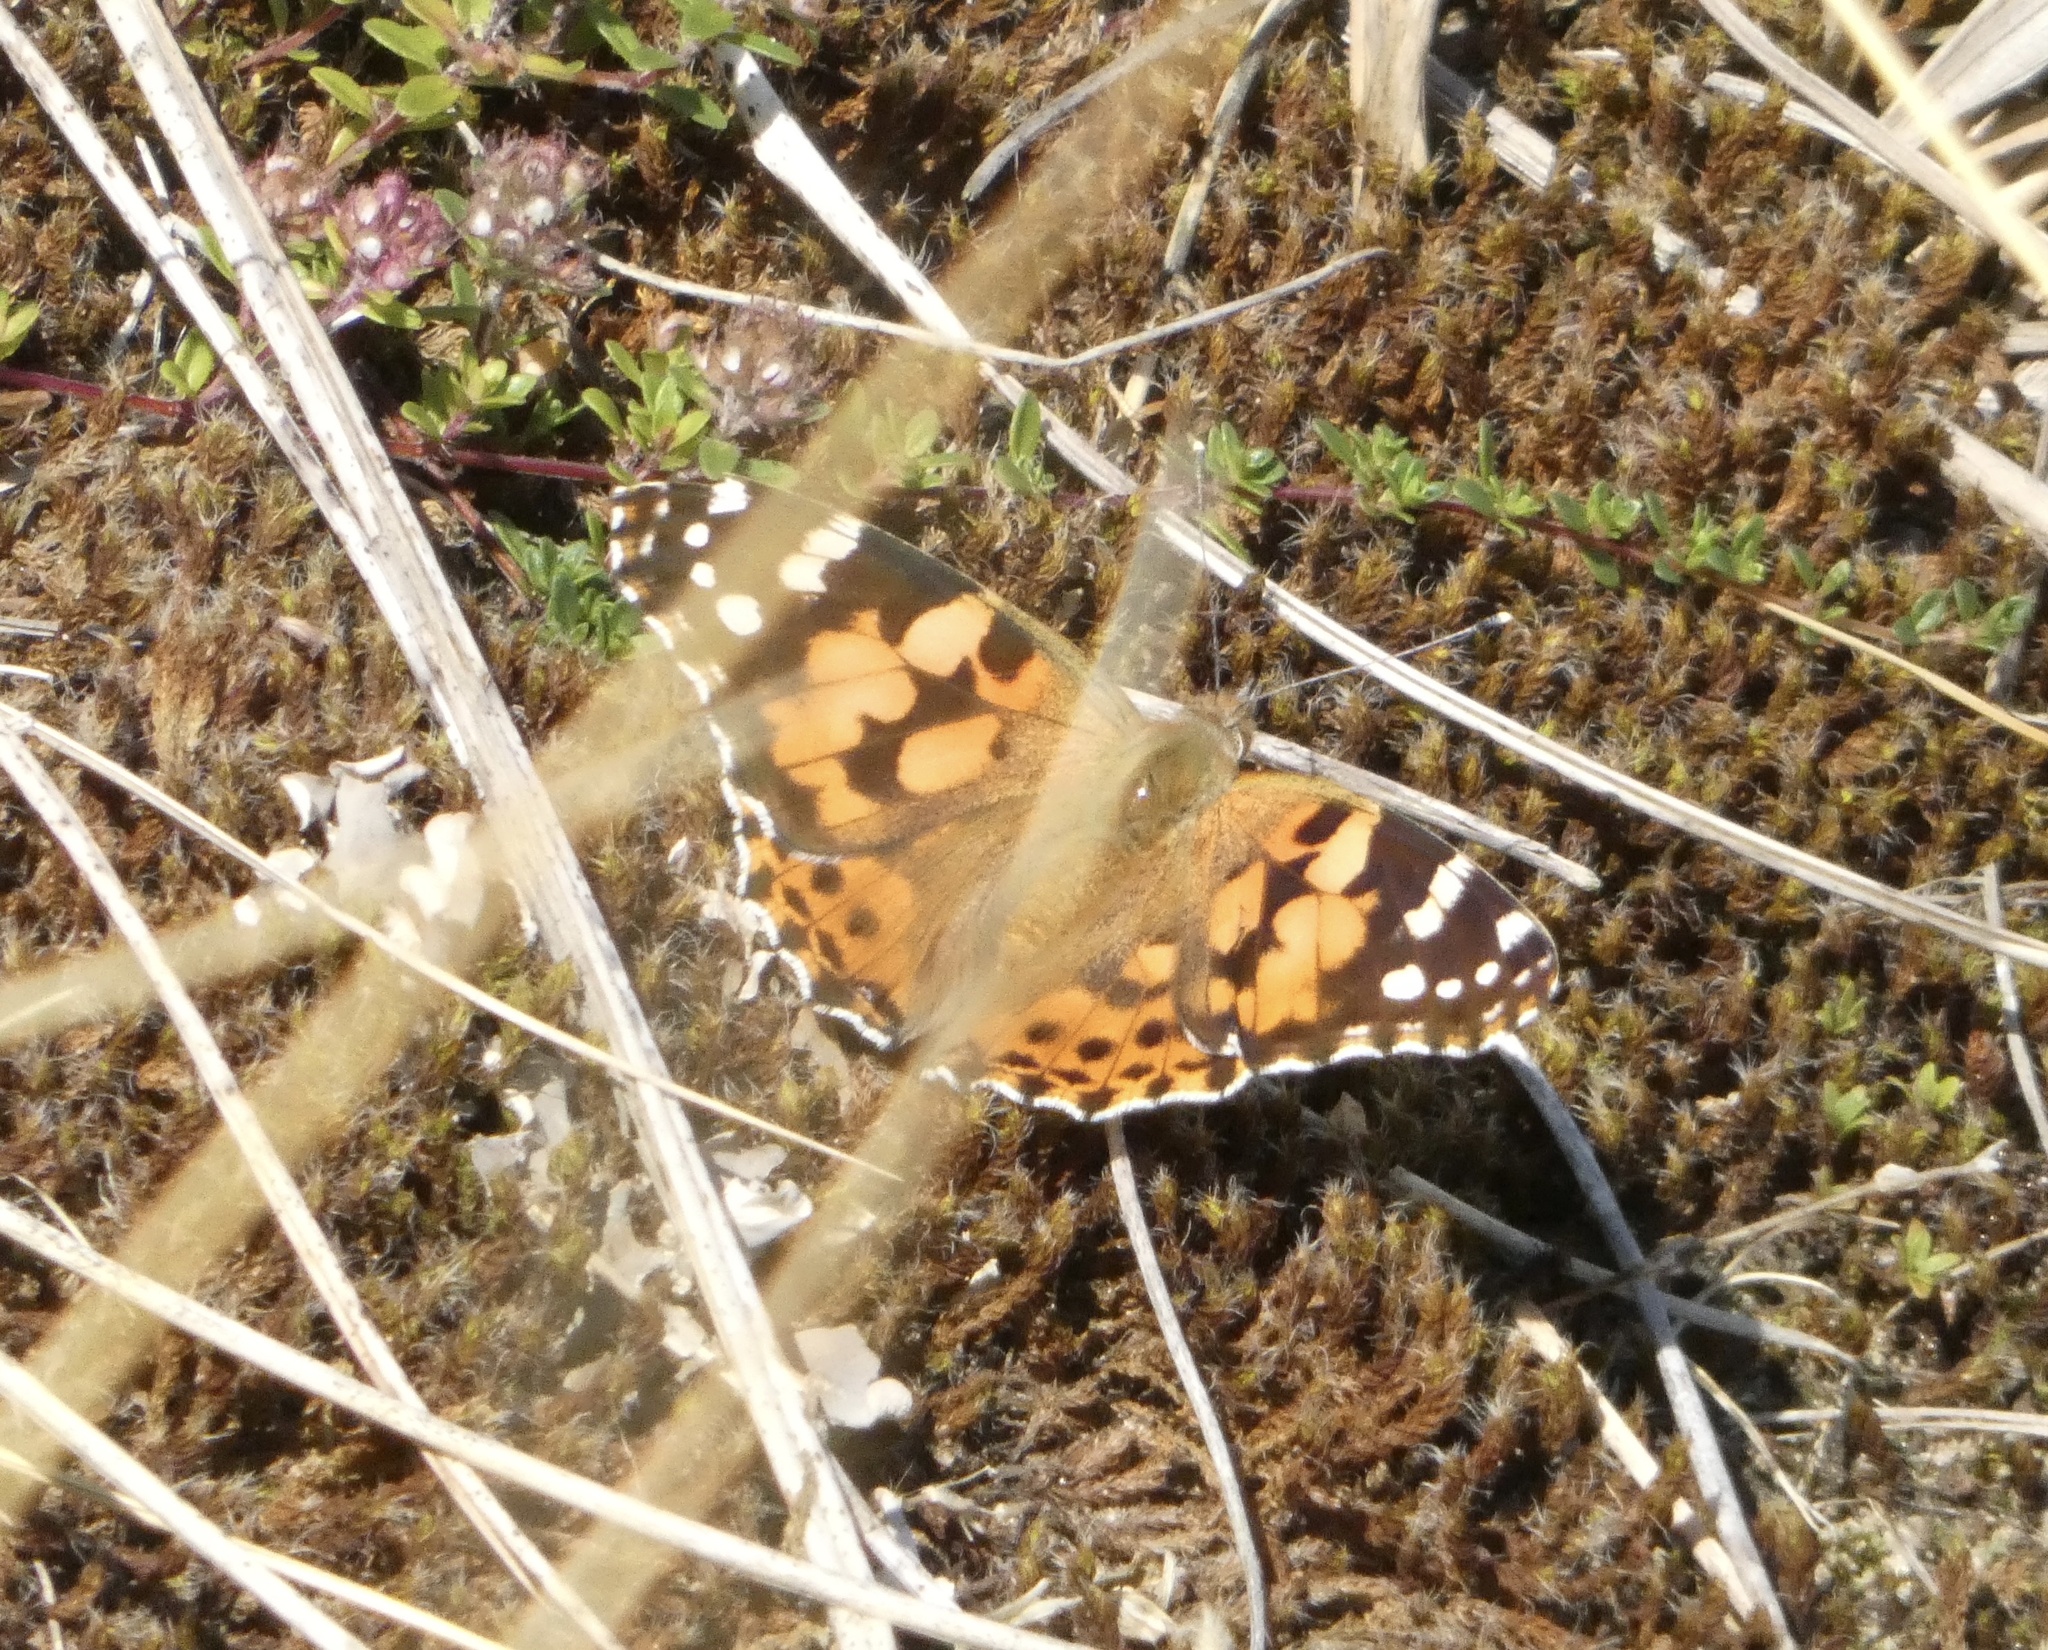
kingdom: Animalia
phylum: Arthropoda
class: Insecta
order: Lepidoptera
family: Nymphalidae
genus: Vanessa
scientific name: Vanessa cardui
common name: Painted lady
